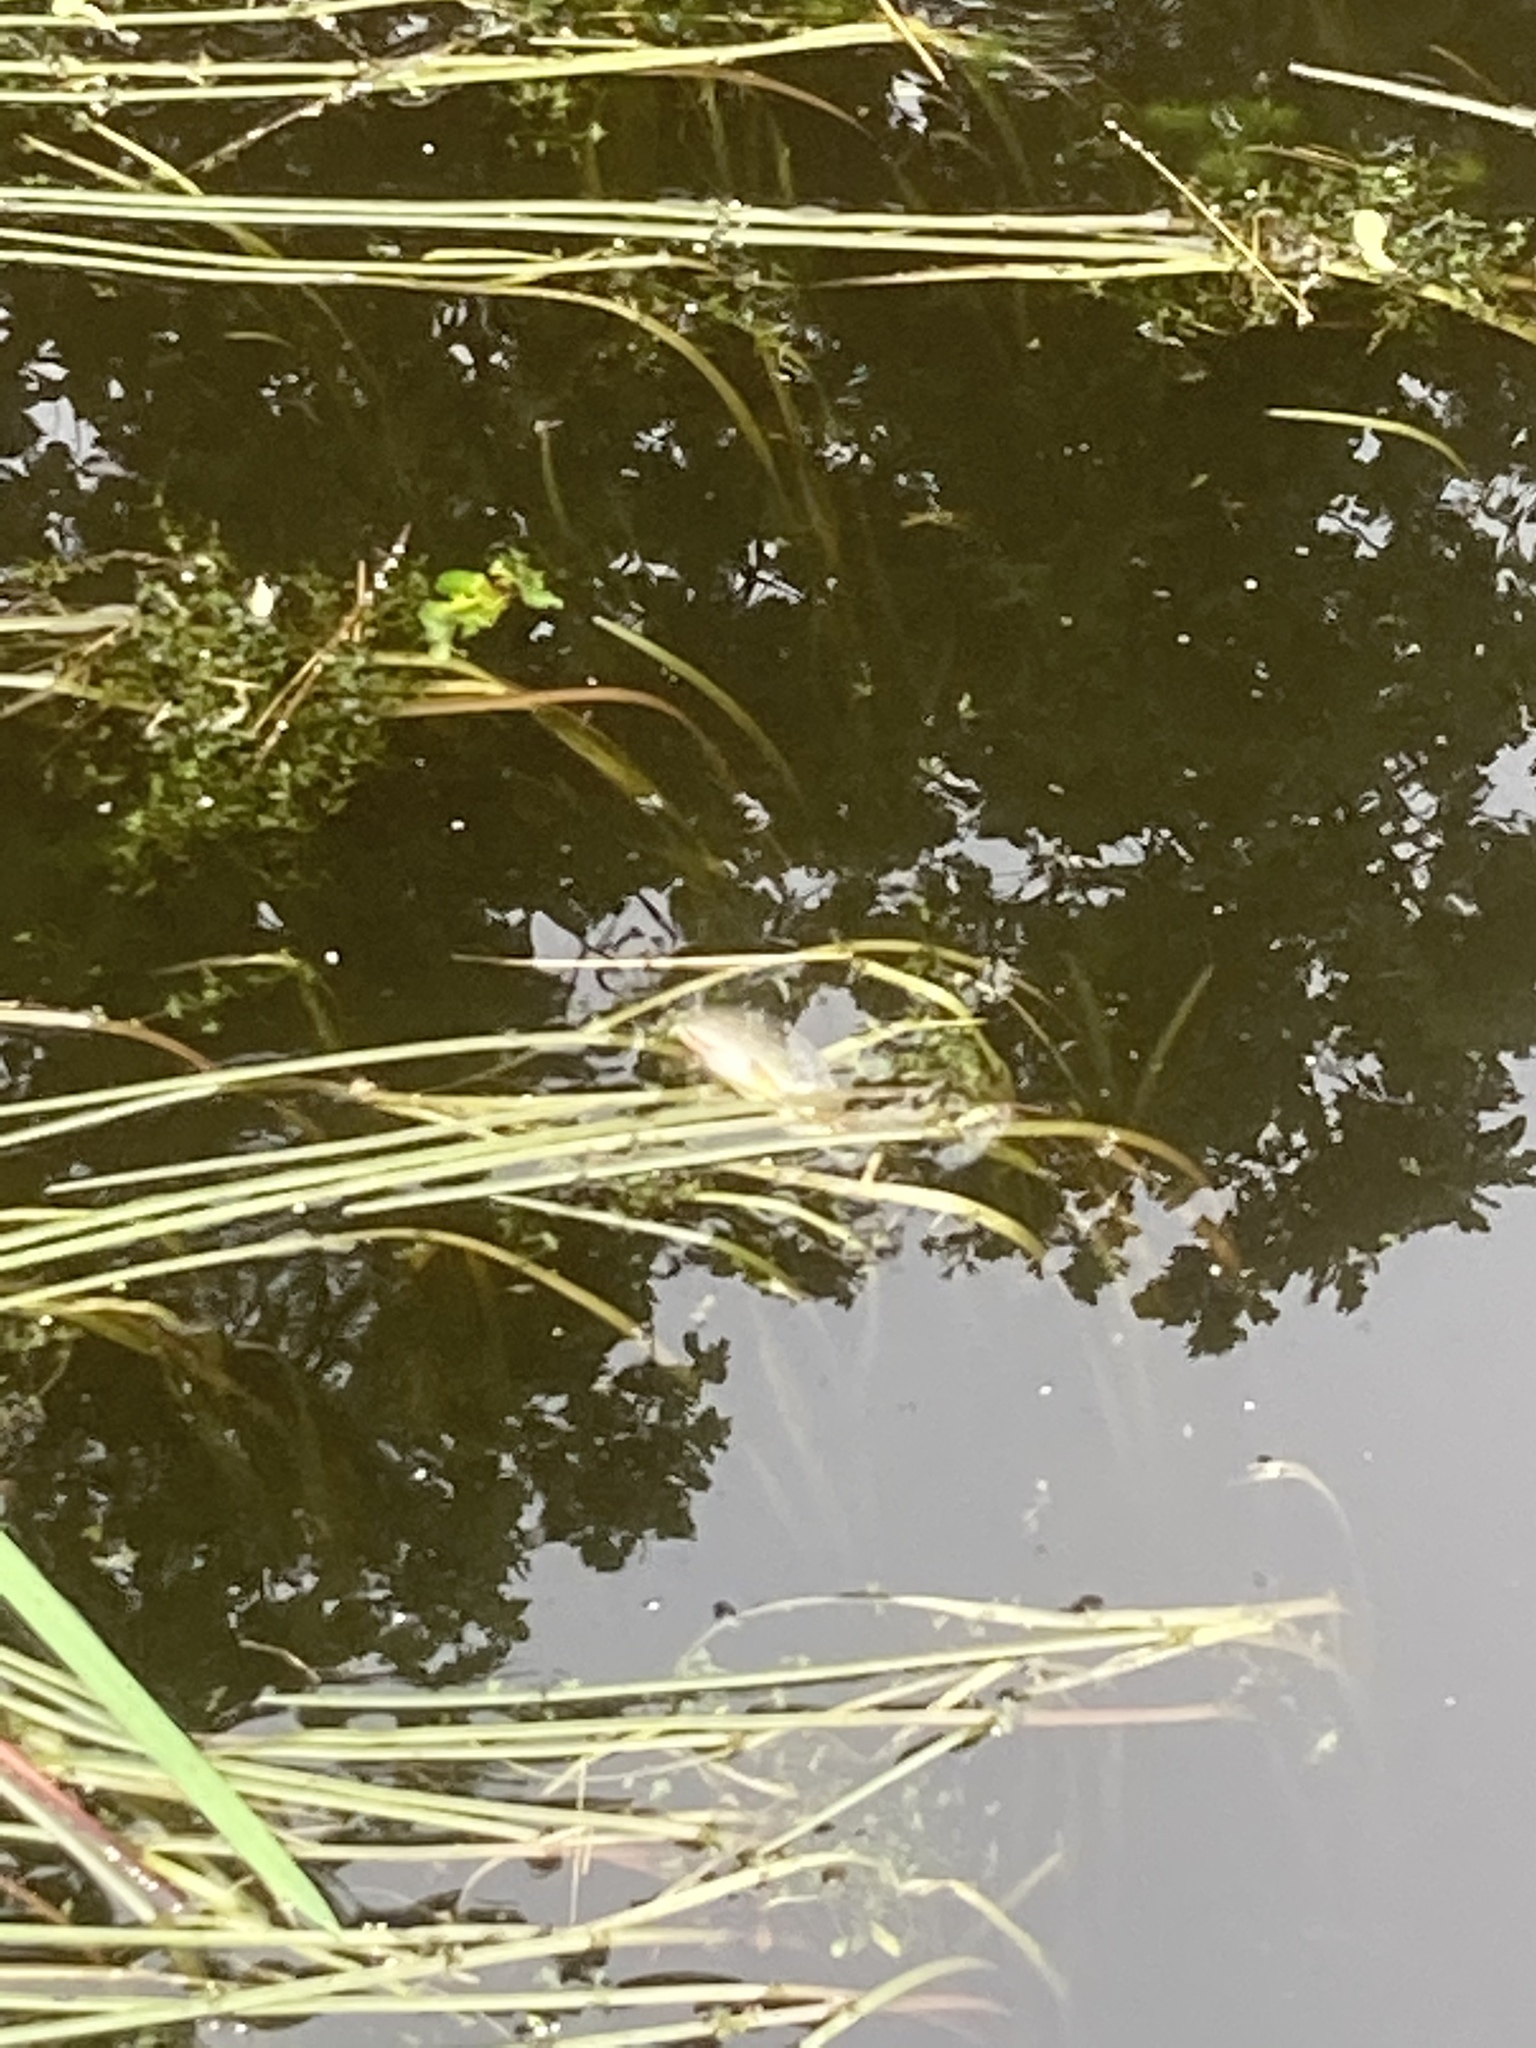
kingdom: Animalia
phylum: Chordata
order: Cypriniformes
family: Cyprinidae
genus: Cyprinus
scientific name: Cyprinus carpio
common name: Common carp
